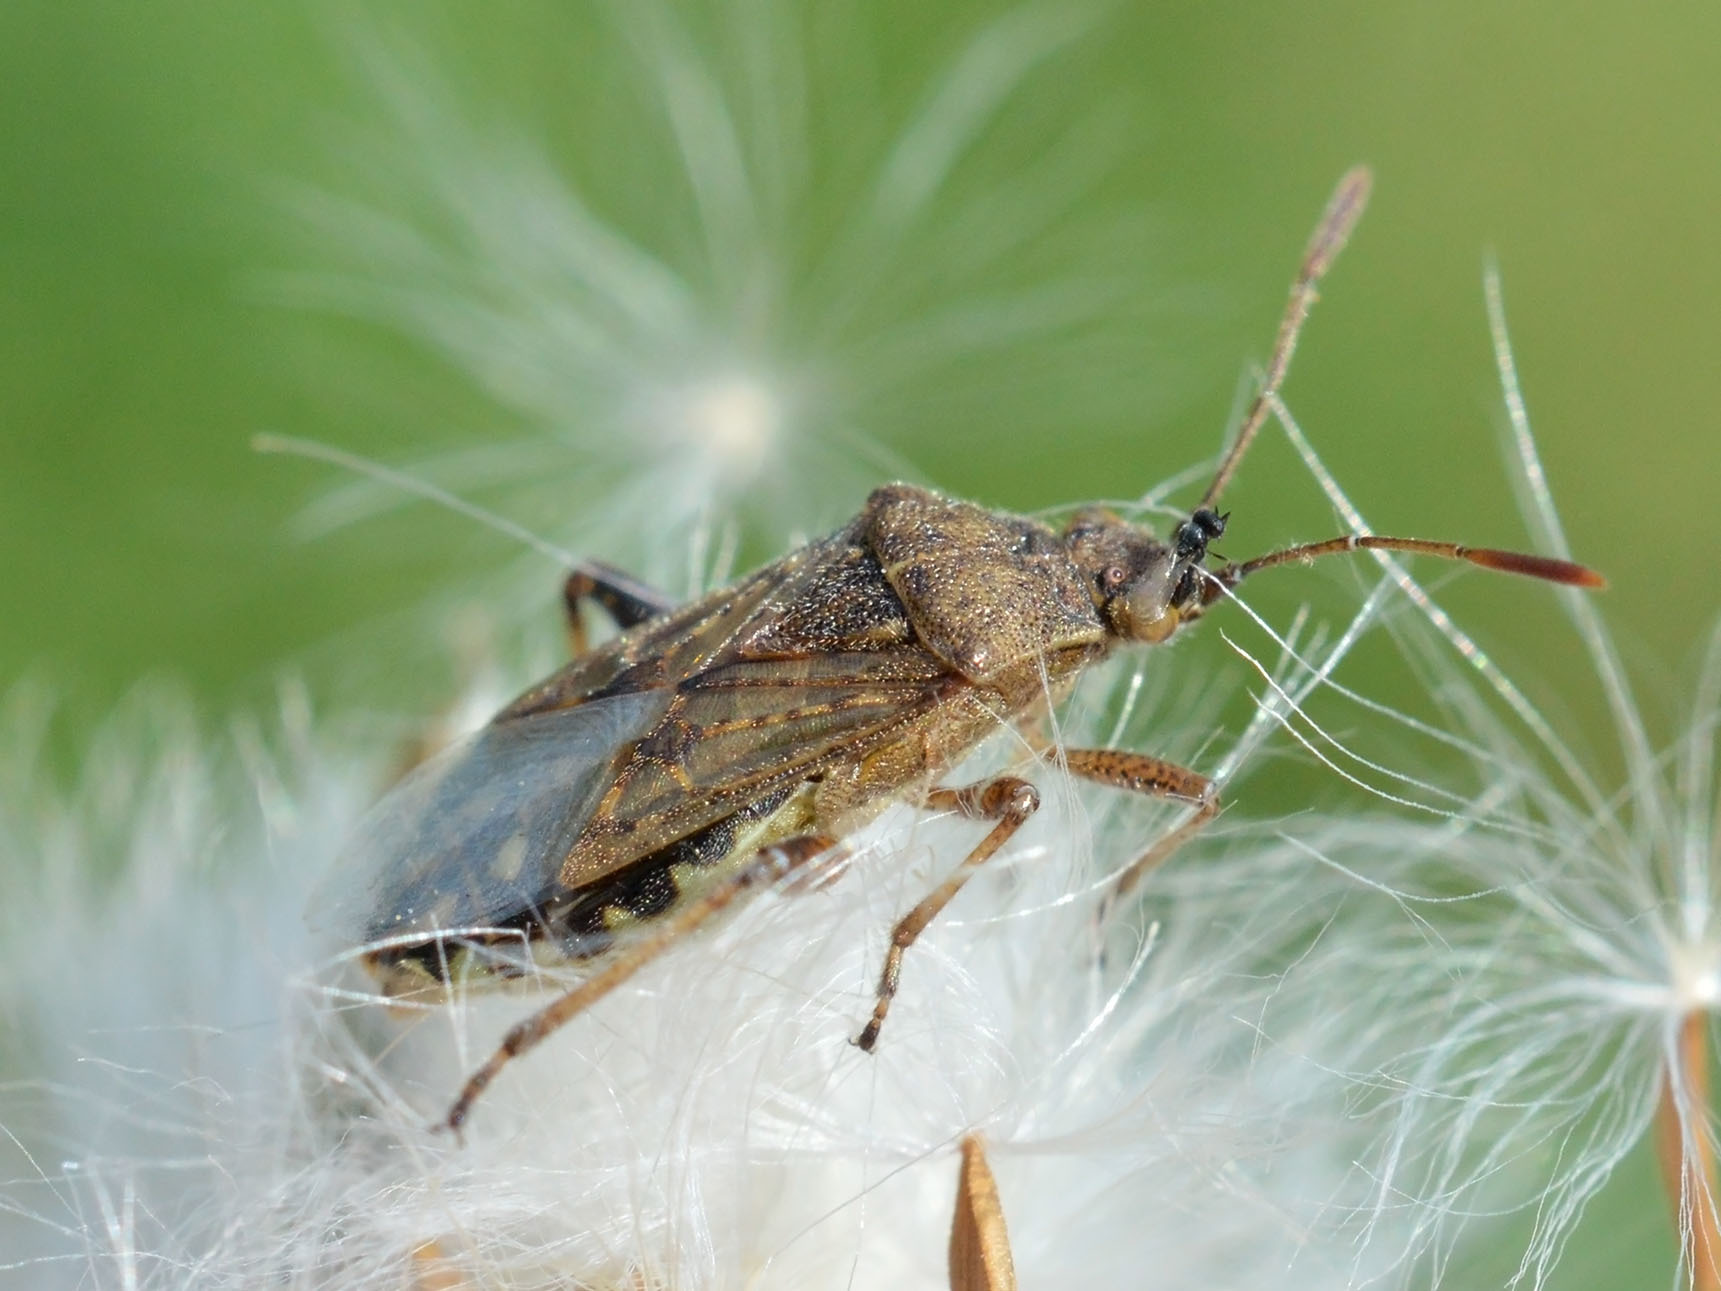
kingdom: Animalia
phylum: Arthropoda
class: Insecta
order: Hemiptera
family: Rhopalidae
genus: Stictopleurus
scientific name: Stictopleurus punctatonervosus
